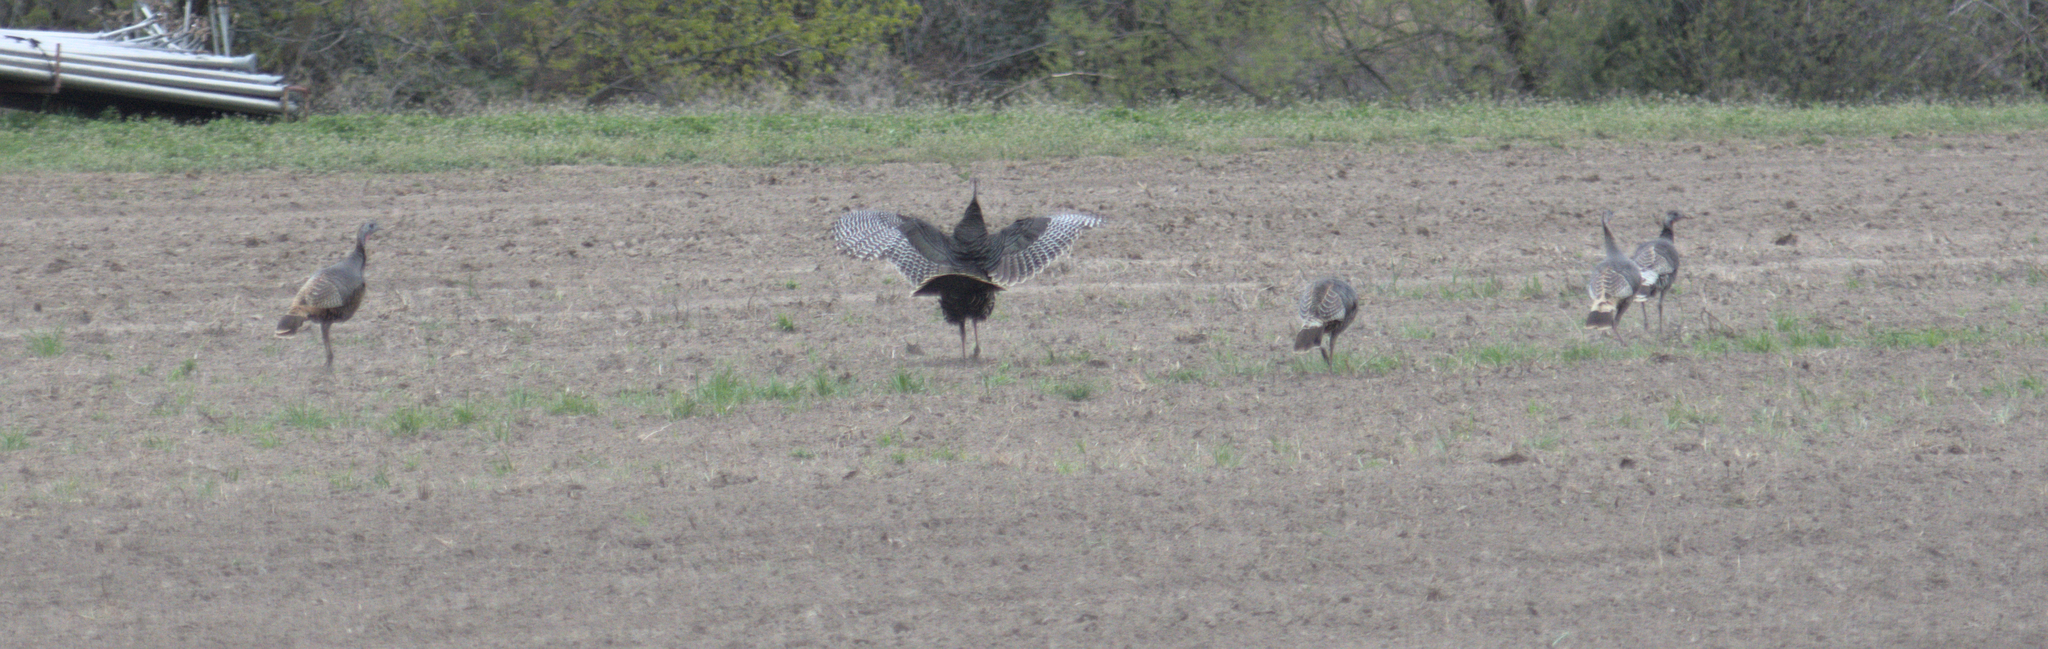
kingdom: Animalia
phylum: Chordata
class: Aves
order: Galliformes
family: Phasianidae
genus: Meleagris
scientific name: Meleagris gallopavo
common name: Wild turkey
